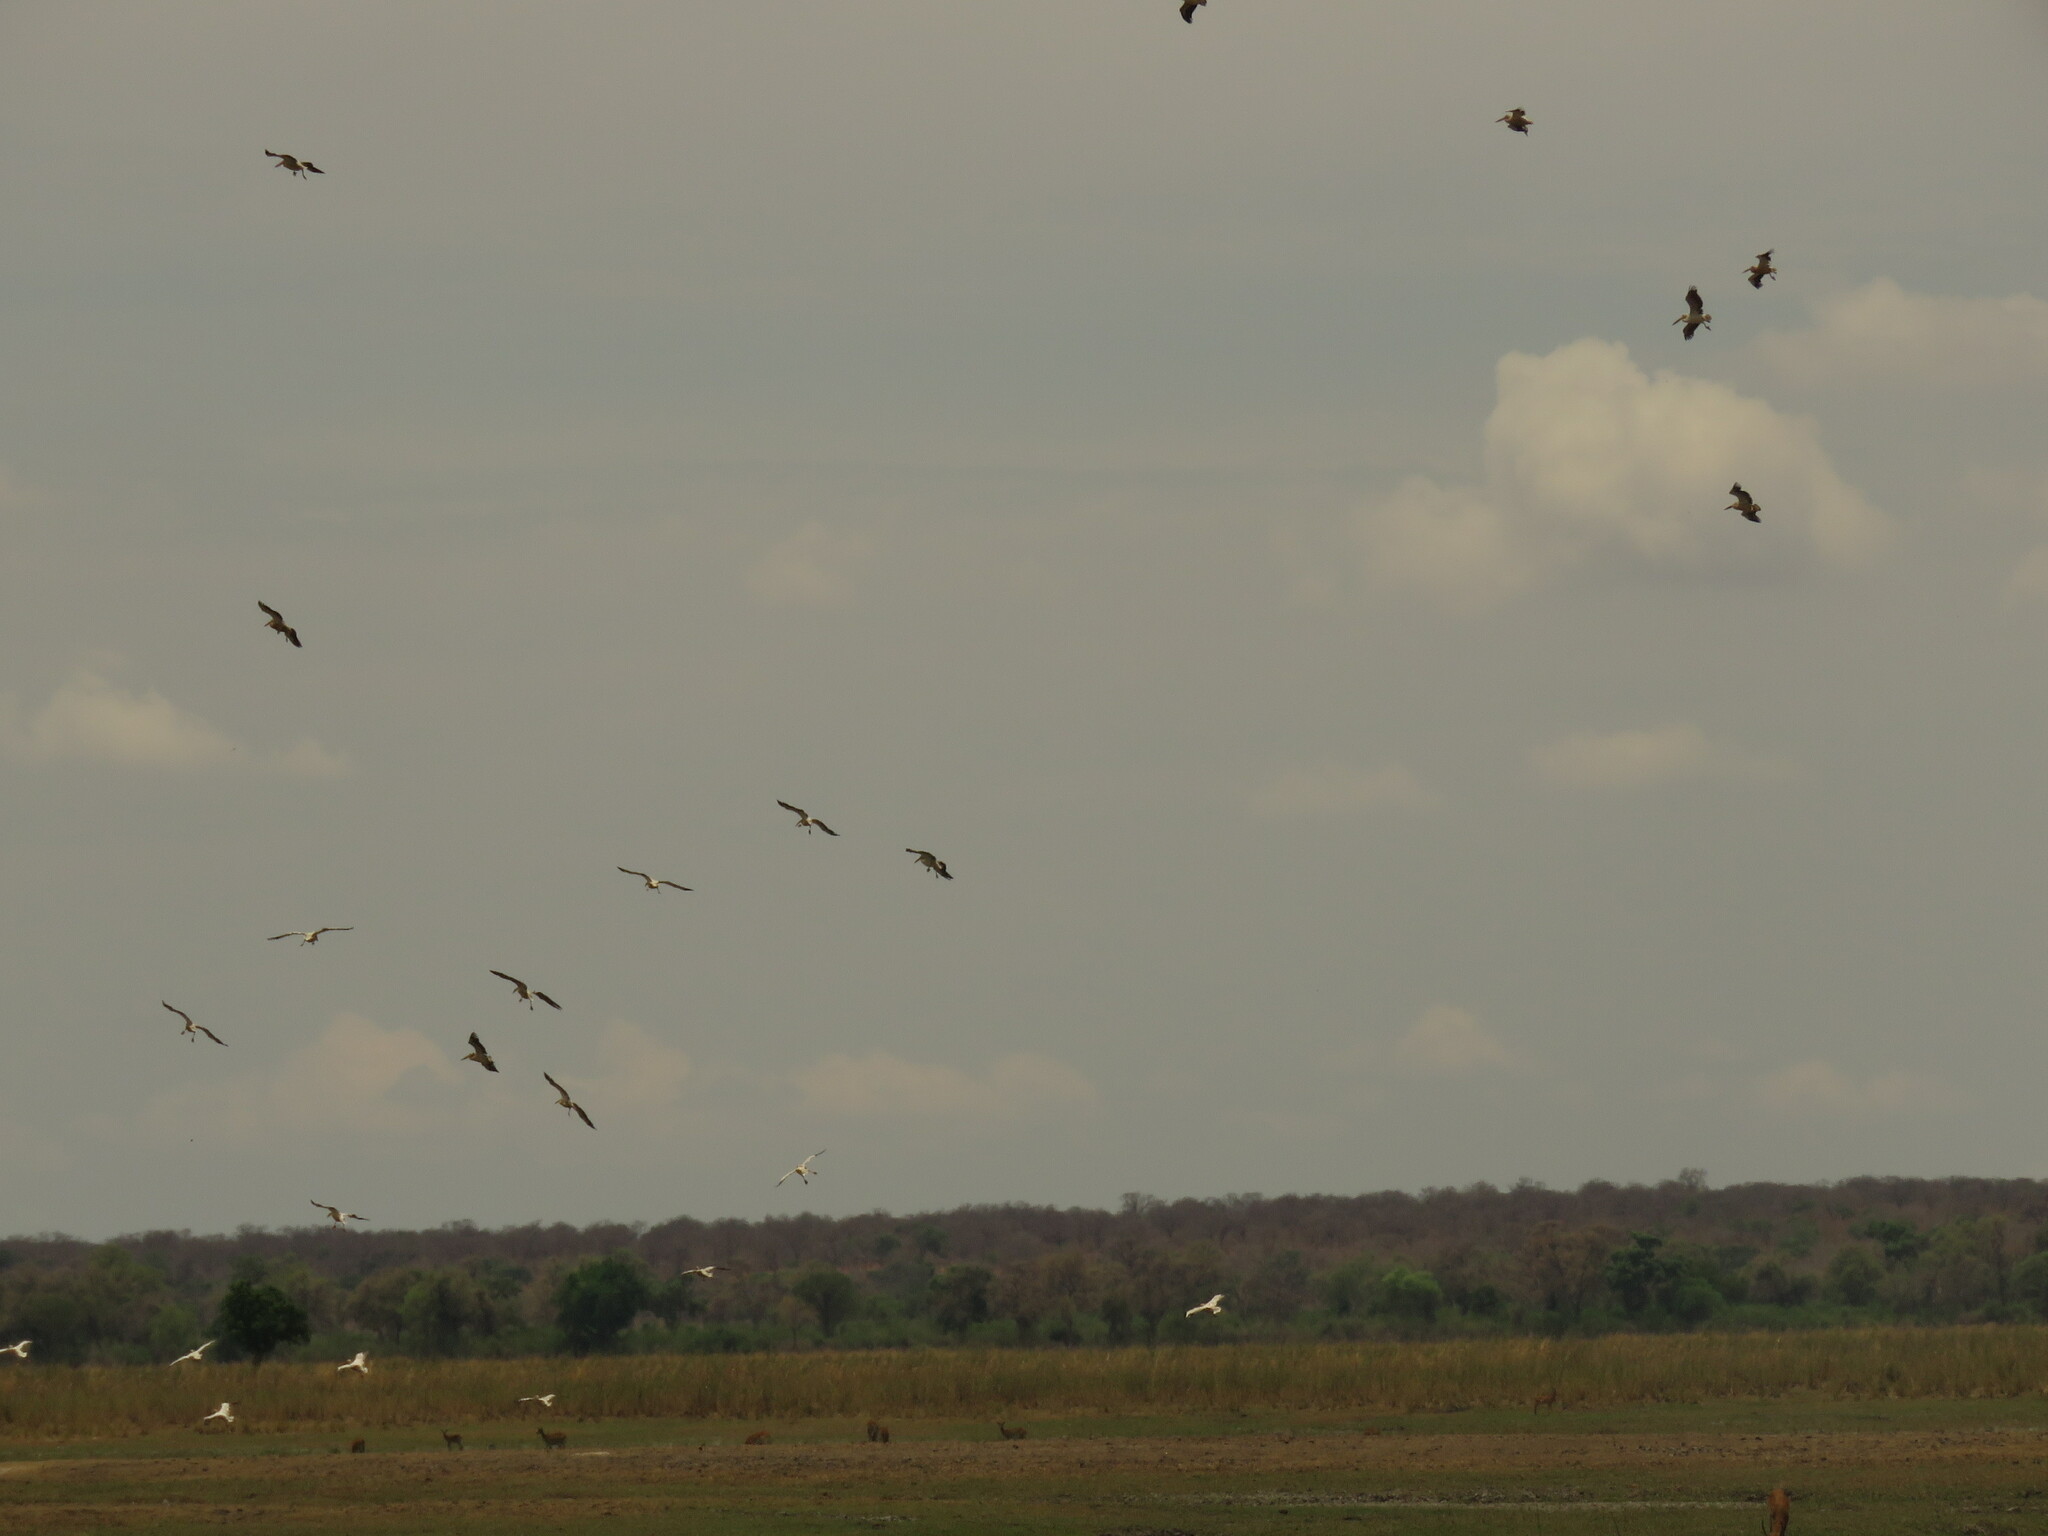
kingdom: Animalia
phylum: Chordata
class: Aves
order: Pelecaniformes
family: Pelecanidae
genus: Pelecanus
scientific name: Pelecanus onocrotalus
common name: Great white pelican
